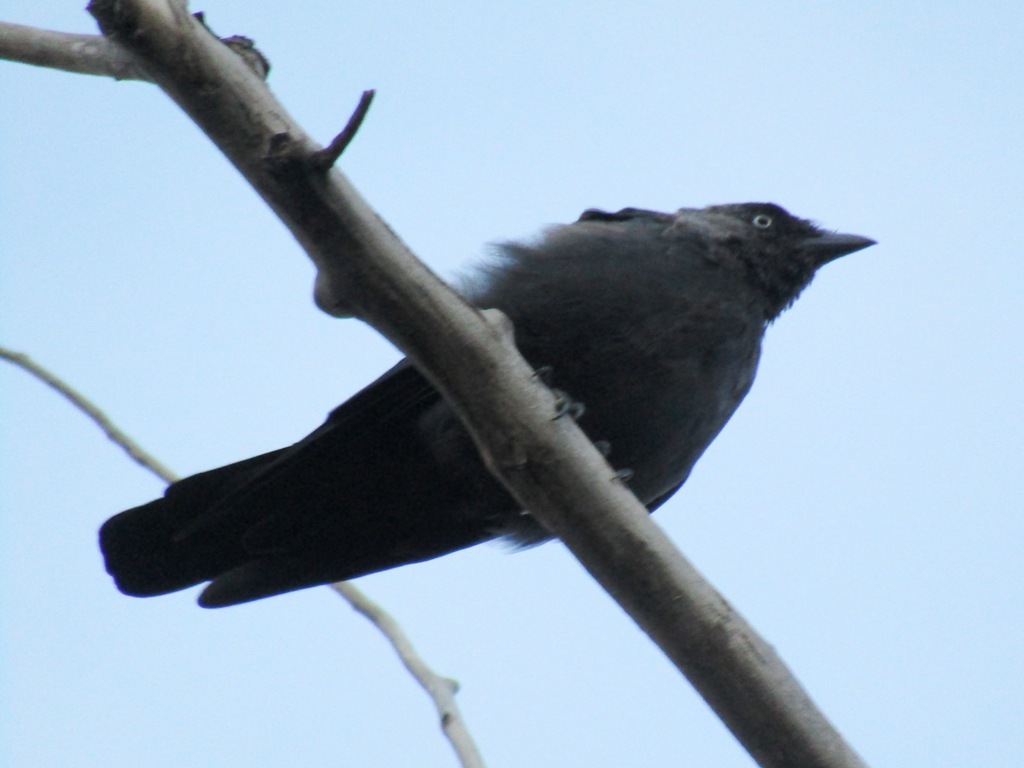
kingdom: Animalia
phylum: Chordata
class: Aves
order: Passeriformes
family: Corvidae
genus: Coloeus
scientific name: Coloeus monedula
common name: Western jackdaw
